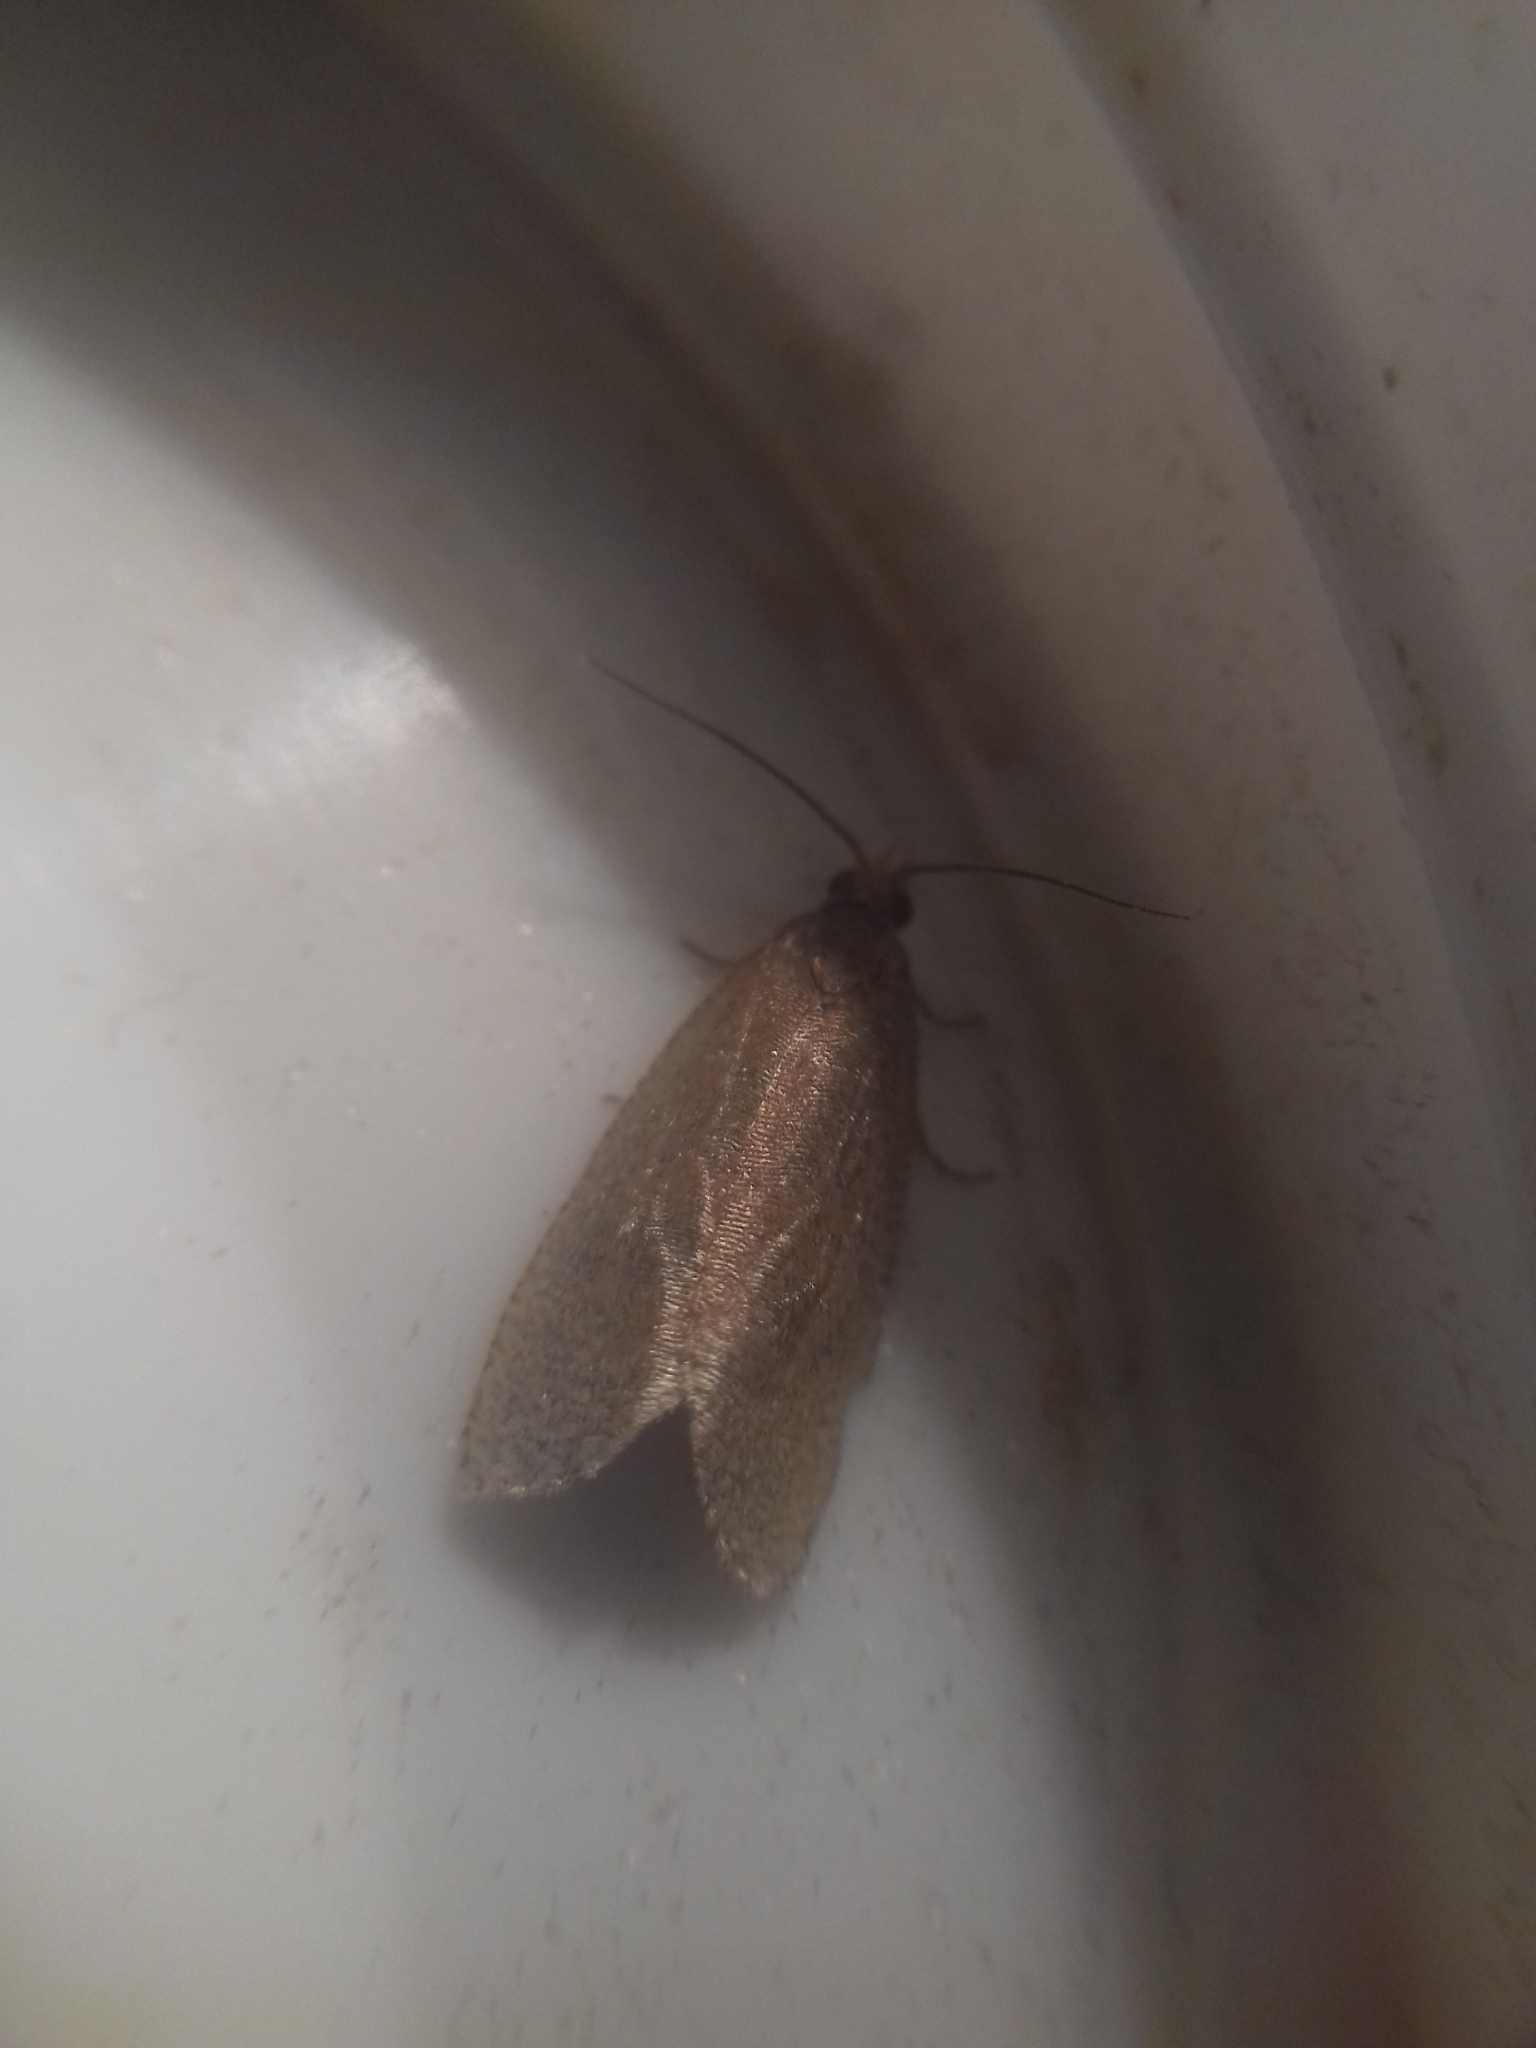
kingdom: Animalia
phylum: Arthropoda
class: Insecta
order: Lepidoptera
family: Tortricidae
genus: Celypha
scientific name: Celypha rufana
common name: Lakes marble
